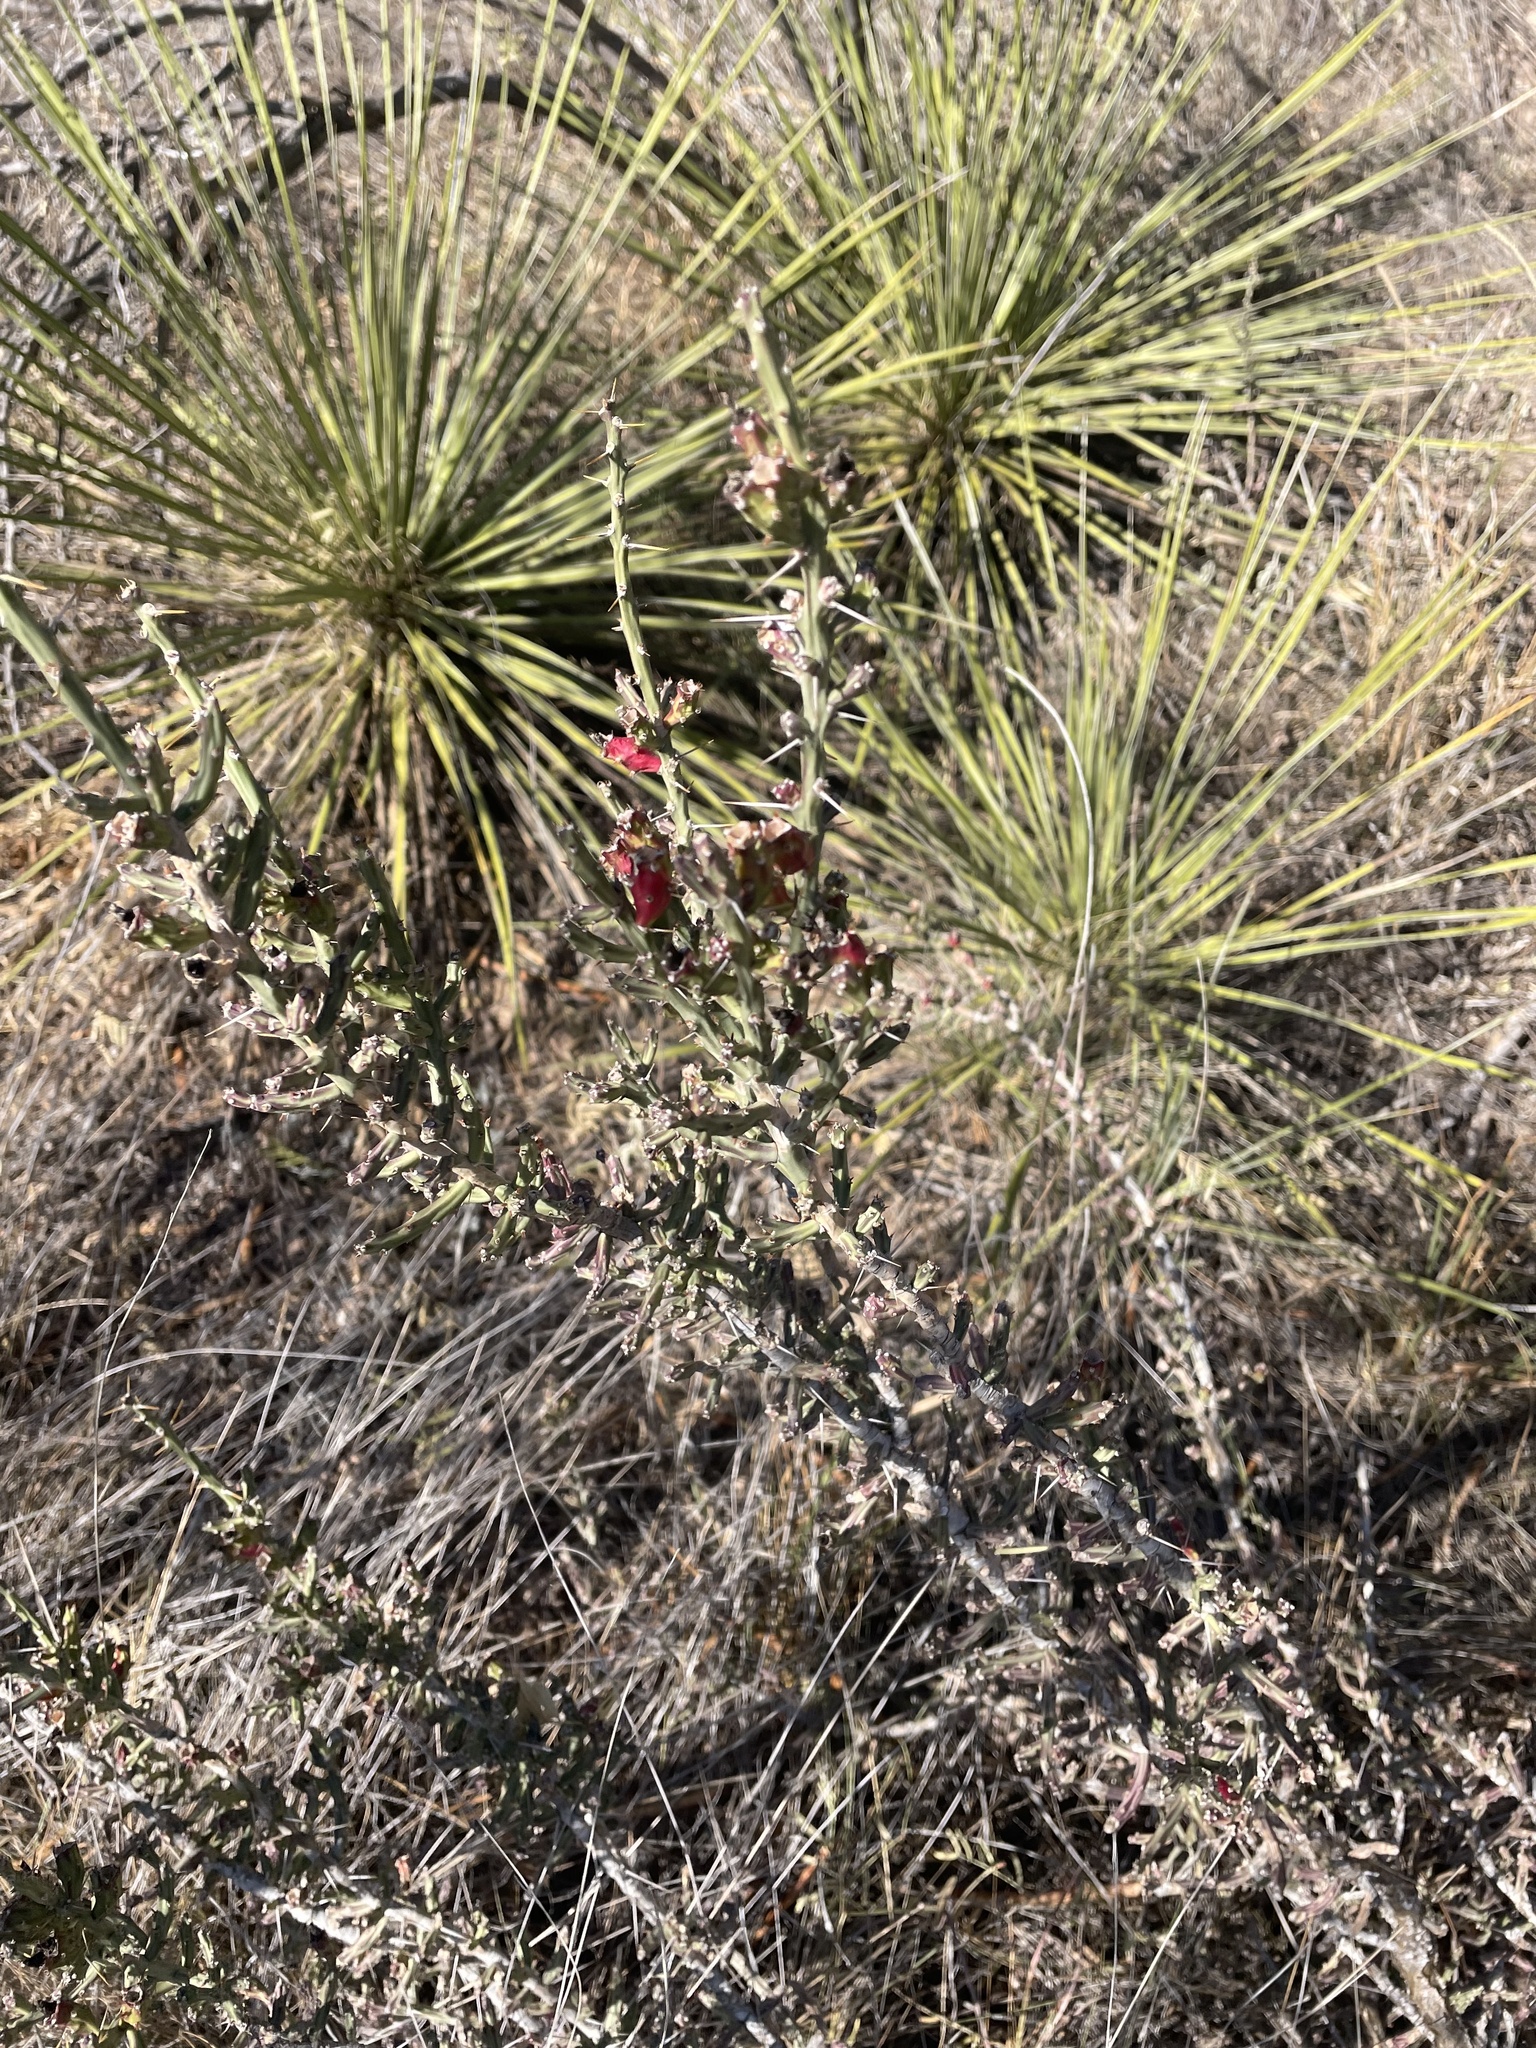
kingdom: Plantae
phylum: Tracheophyta
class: Magnoliopsida
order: Caryophyllales
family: Cactaceae
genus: Cylindropuntia
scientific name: Cylindropuntia leptocaulis
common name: Christmas cactus
